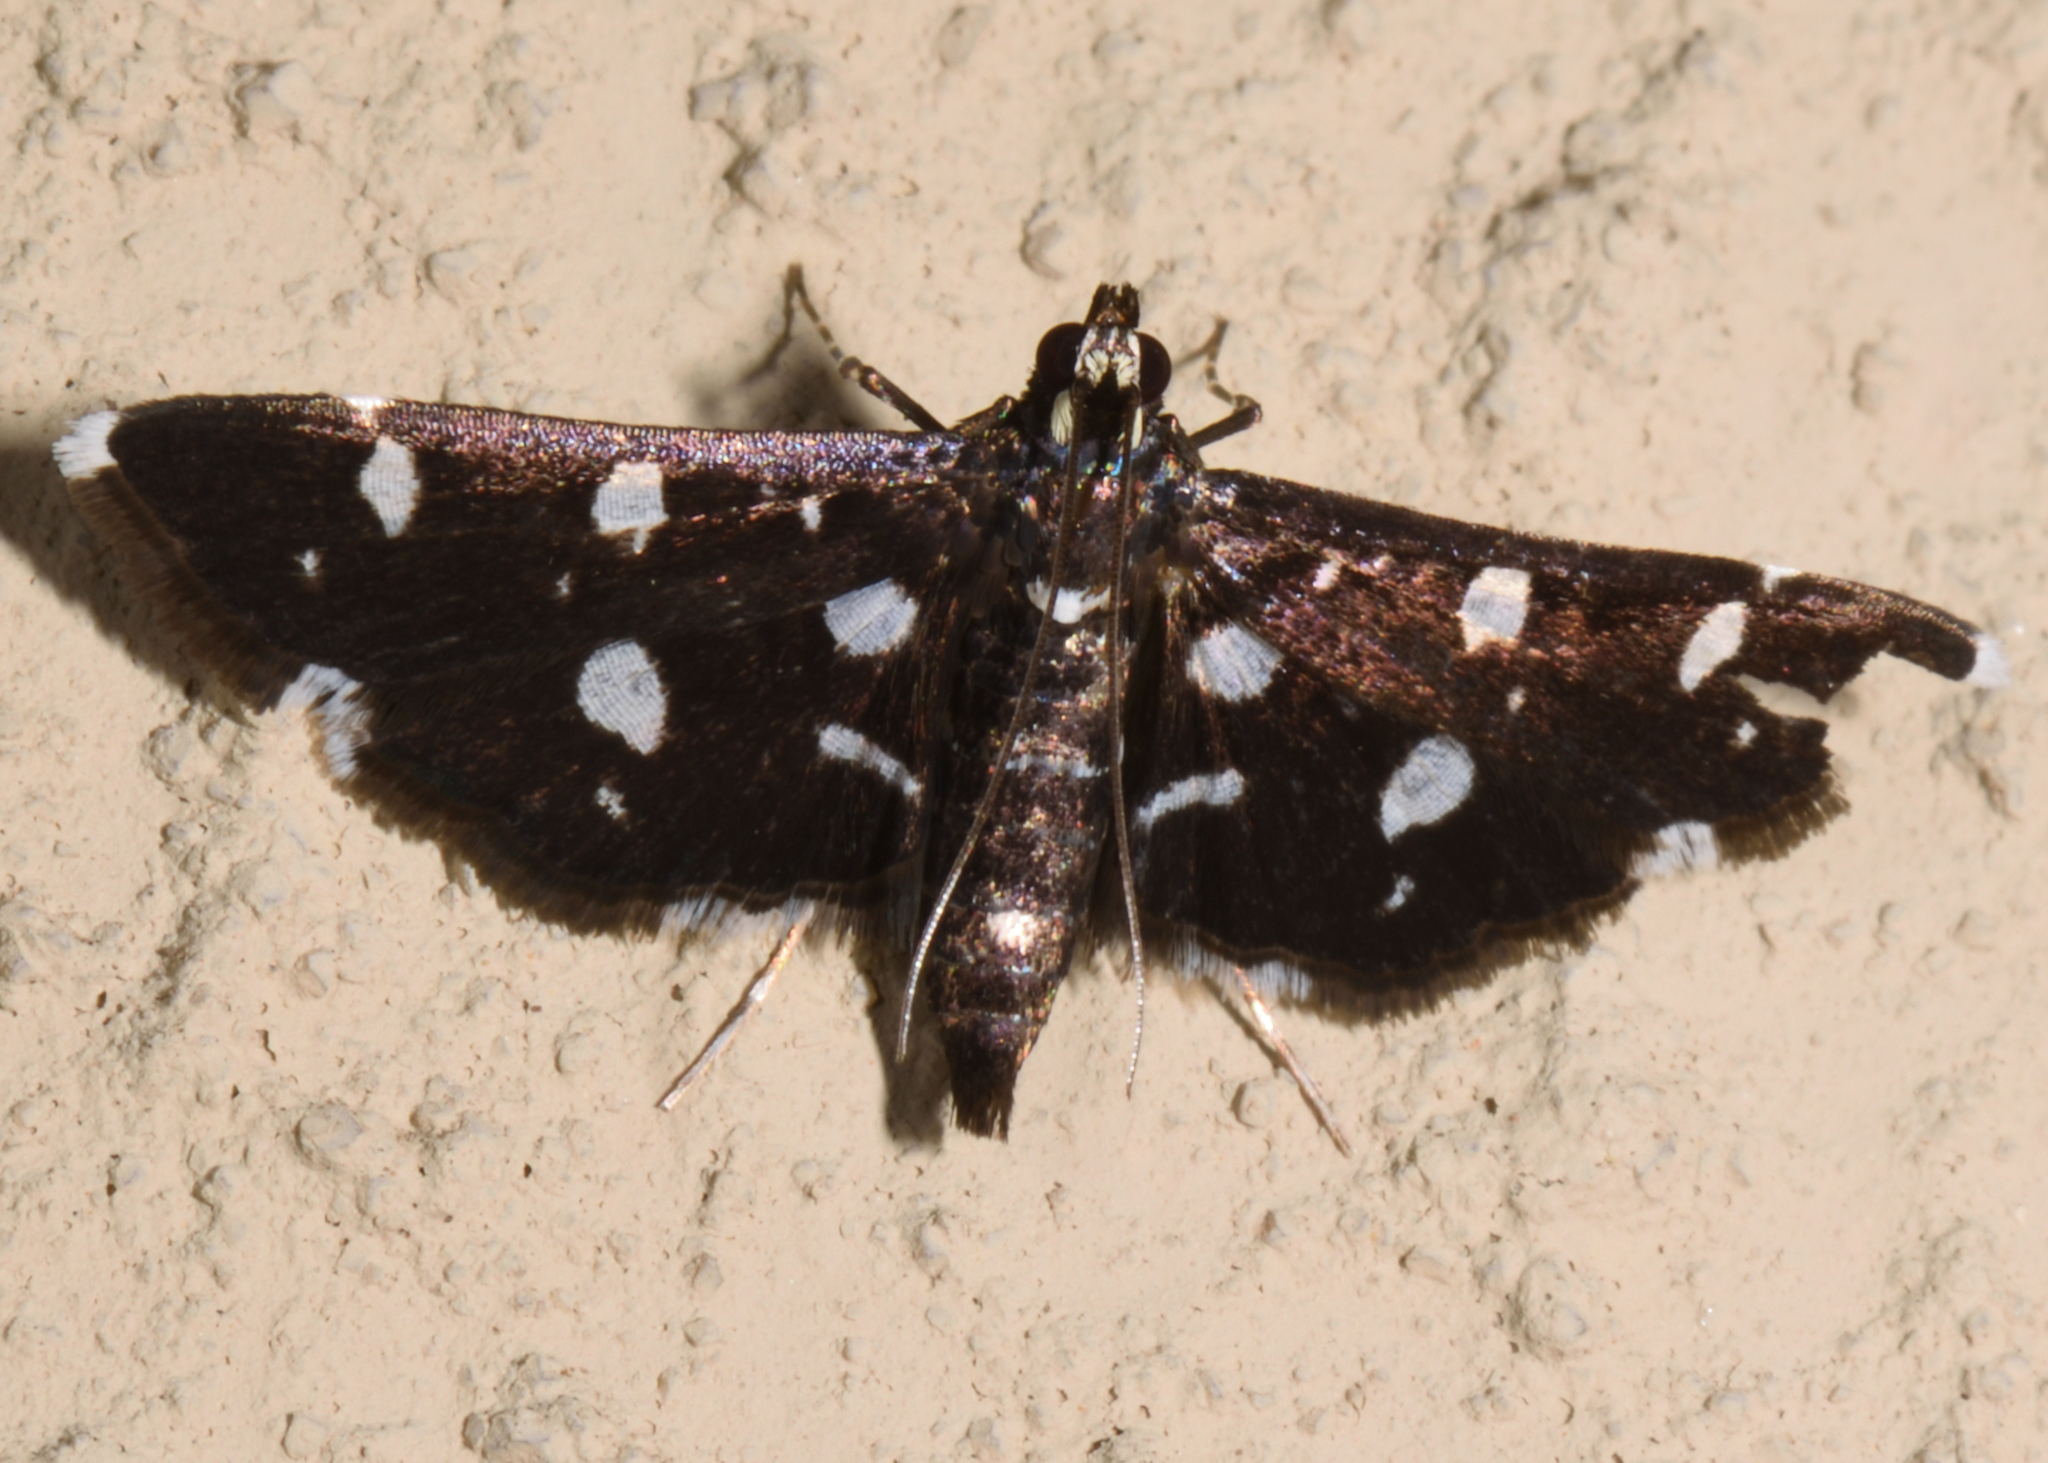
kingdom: Animalia
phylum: Arthropoda
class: Insecta
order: Lepidoptera
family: Crambidae
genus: Bocchoris
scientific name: Bocchoris inspersalis
